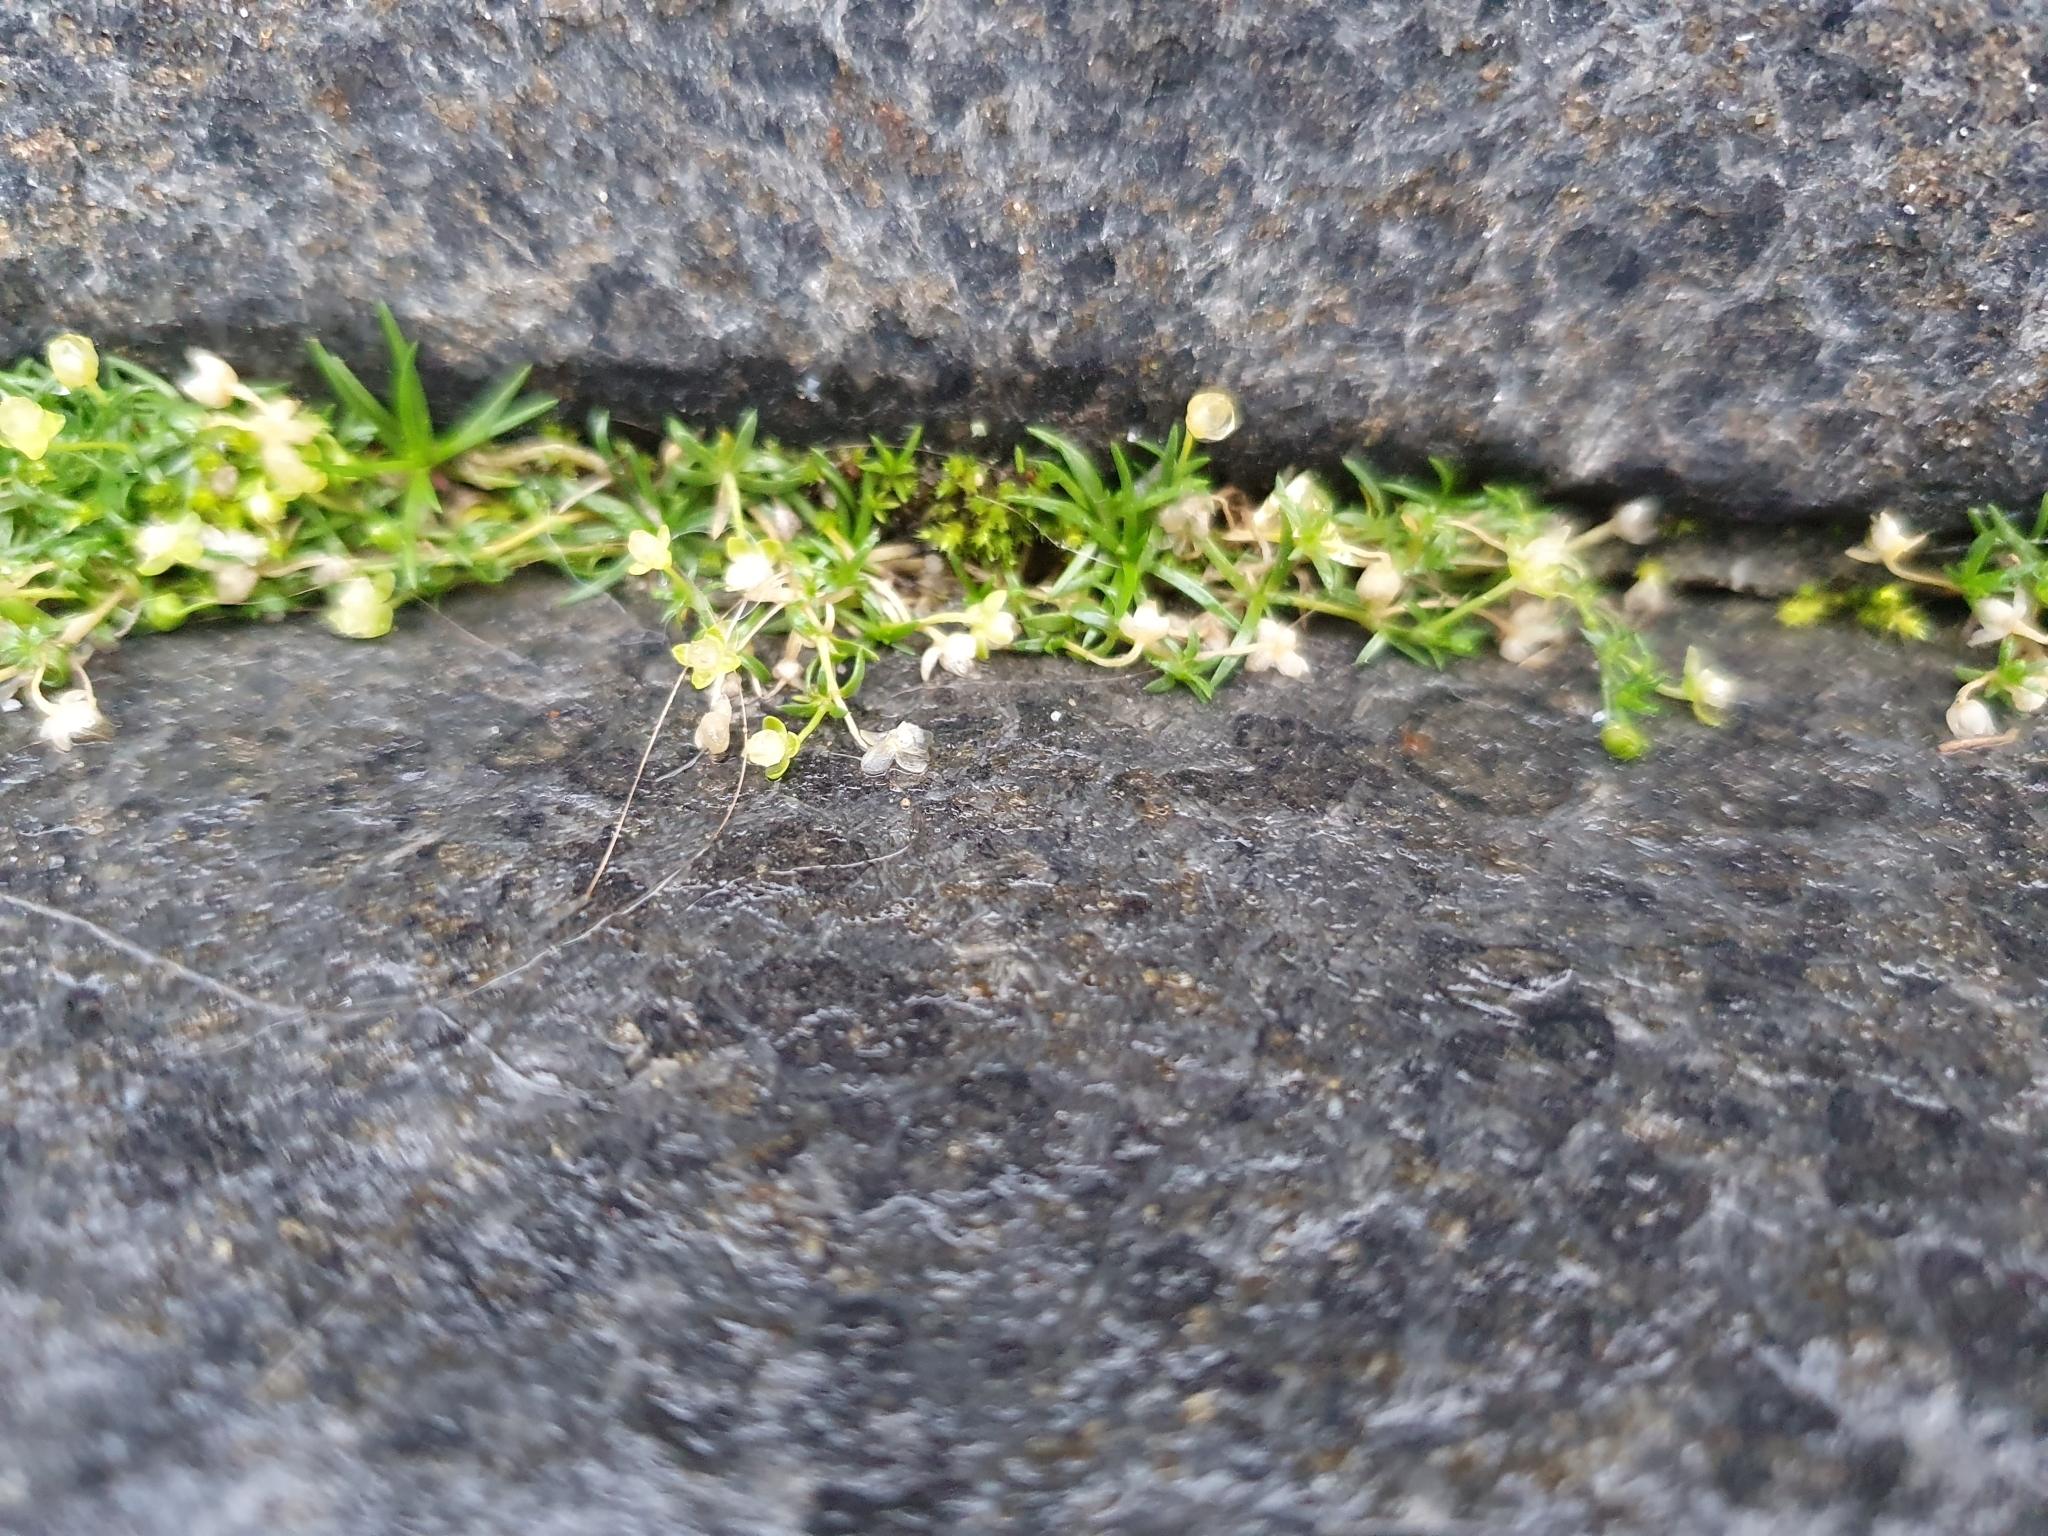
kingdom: Plantae
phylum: Tracheophyta
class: Magnoliopsida
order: Caryophyllales
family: Caryophyllaceae
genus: Sagina
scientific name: Sagina procumbens
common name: Procumbent pearlwort
